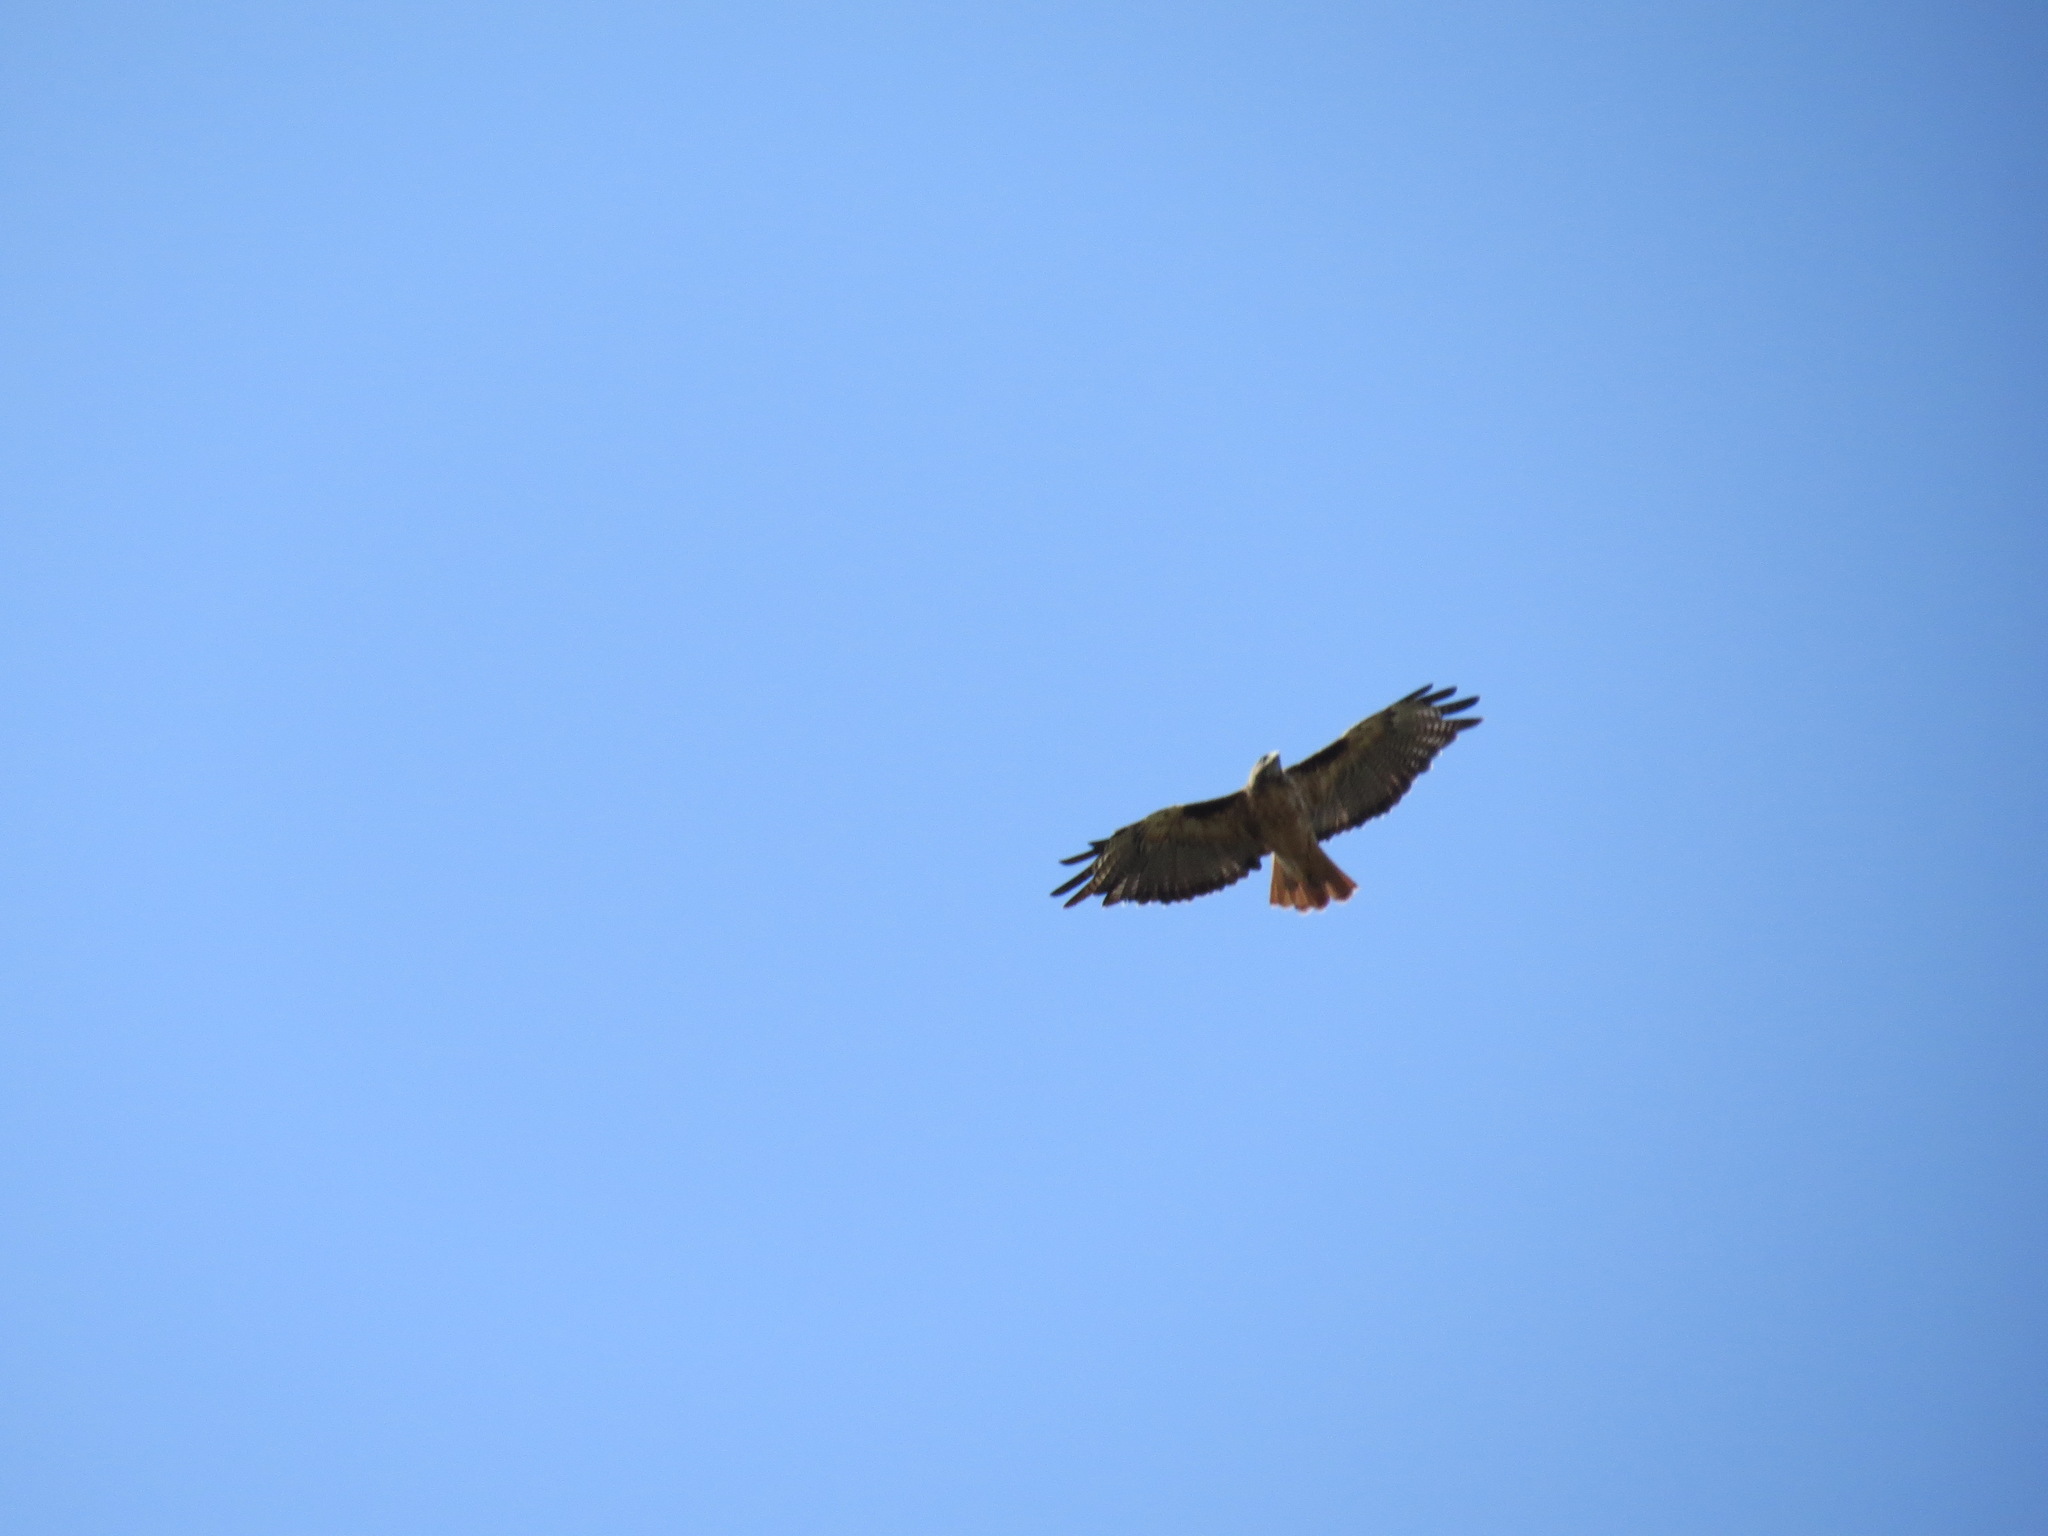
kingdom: Animalia
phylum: Chordata
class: Aves
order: Accipitriformes
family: Accipitridae
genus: Buteo
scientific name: Buteo jamaicensis
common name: Red-tailed hawk
